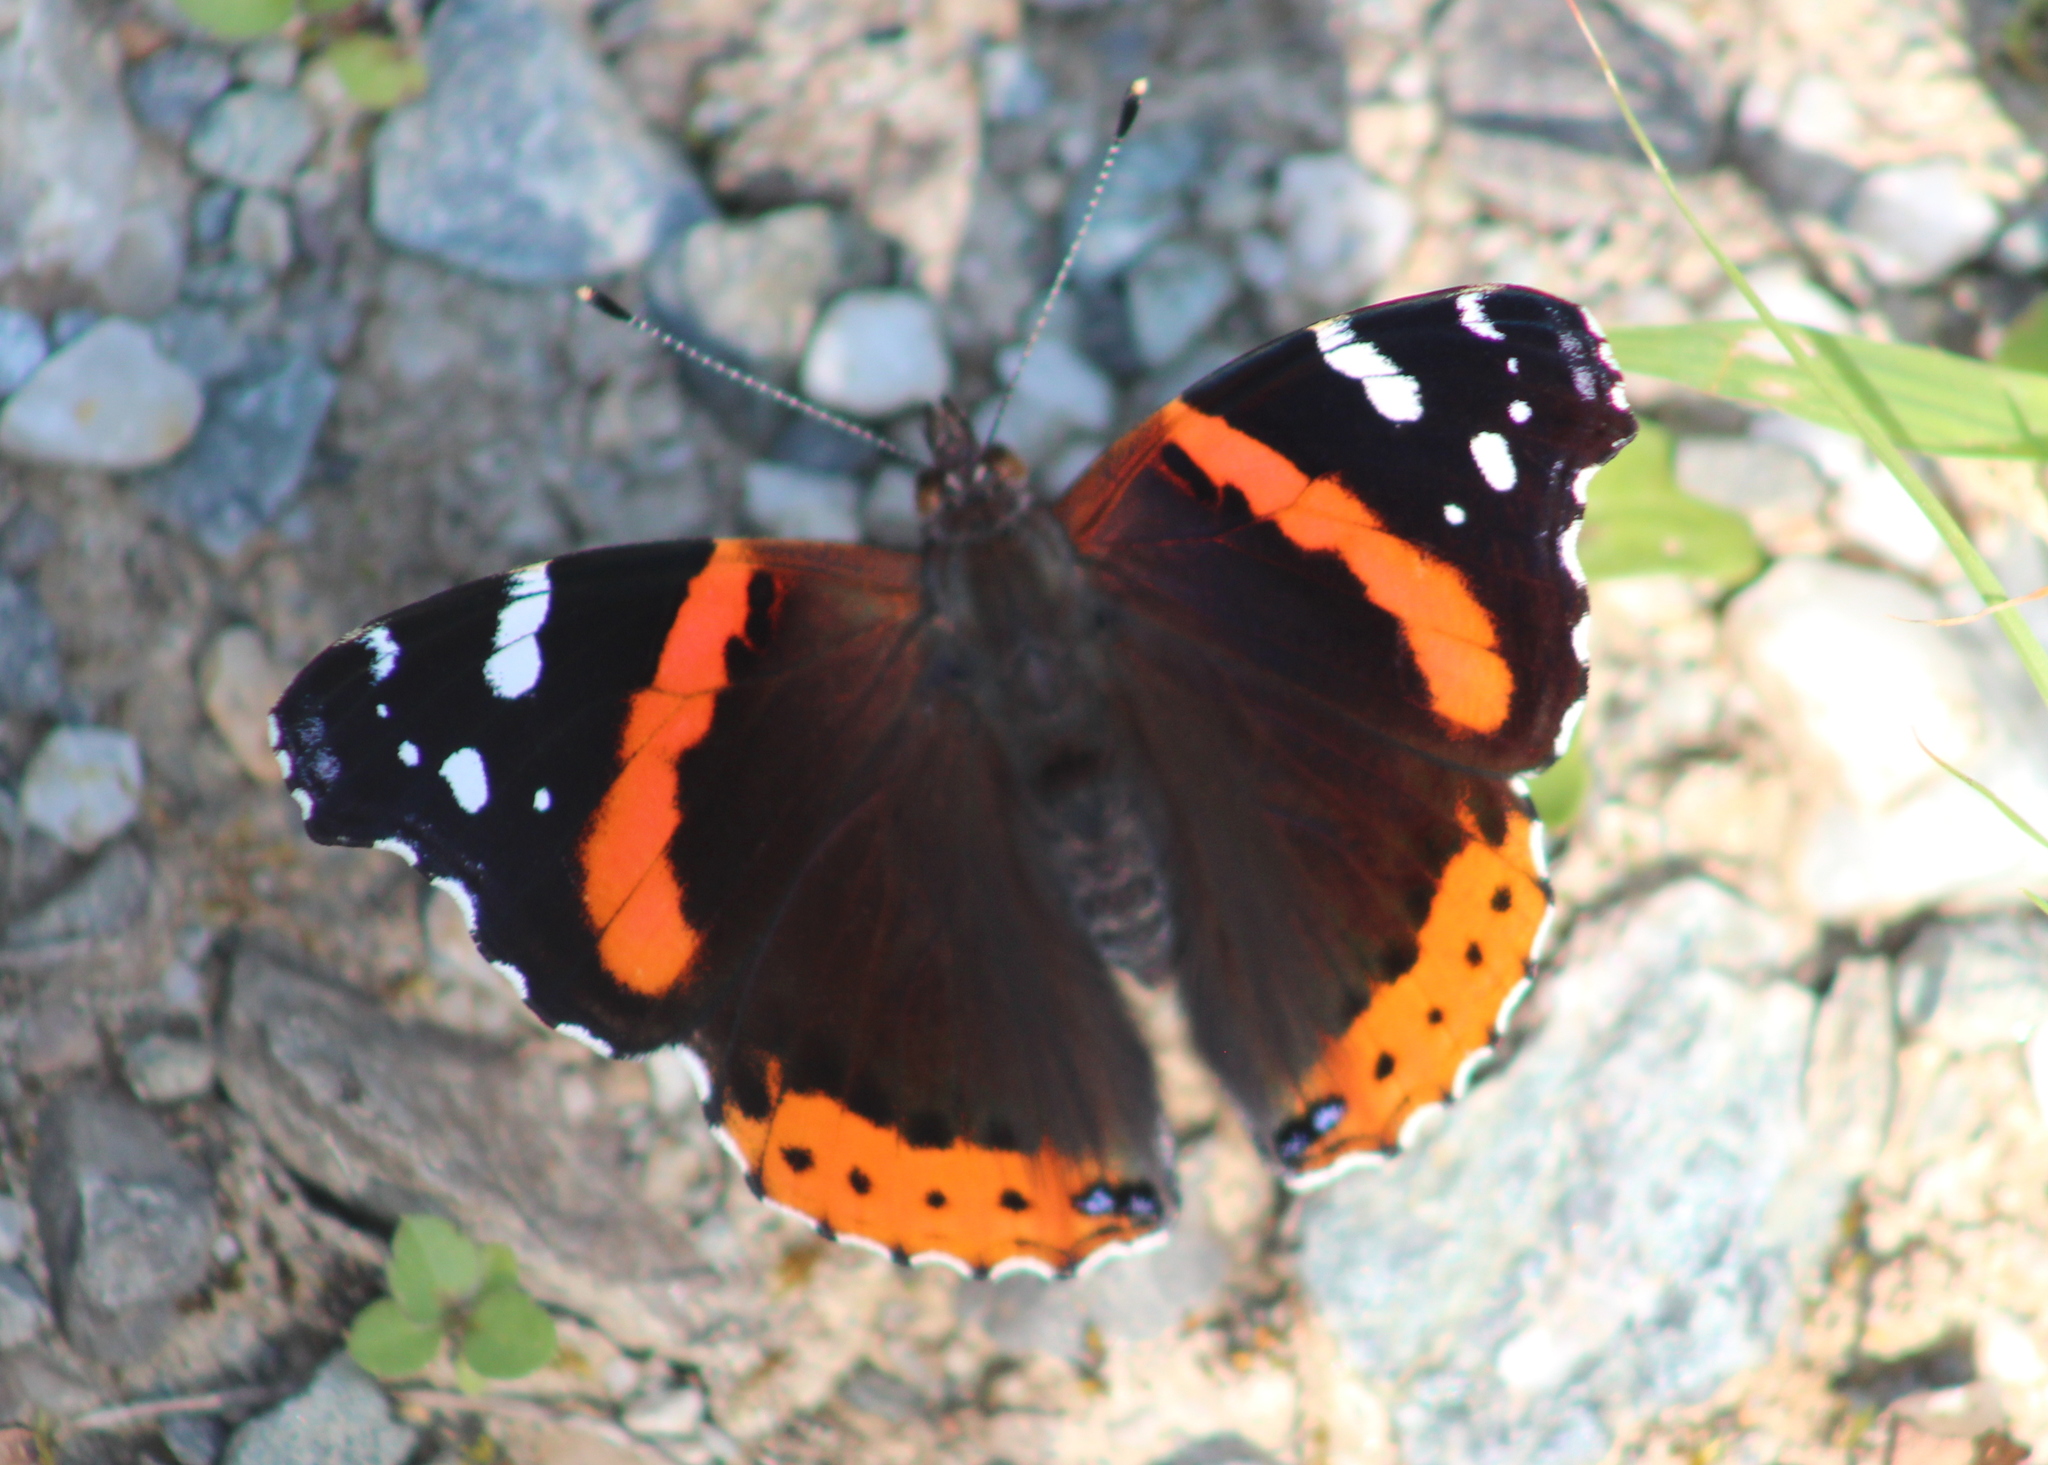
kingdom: Animalia
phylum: Arthropoda
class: Insecta
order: Lepidoptera
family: Nymphalidae
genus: Vanessa
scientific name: Vanessa atalanta
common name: Red admiral
